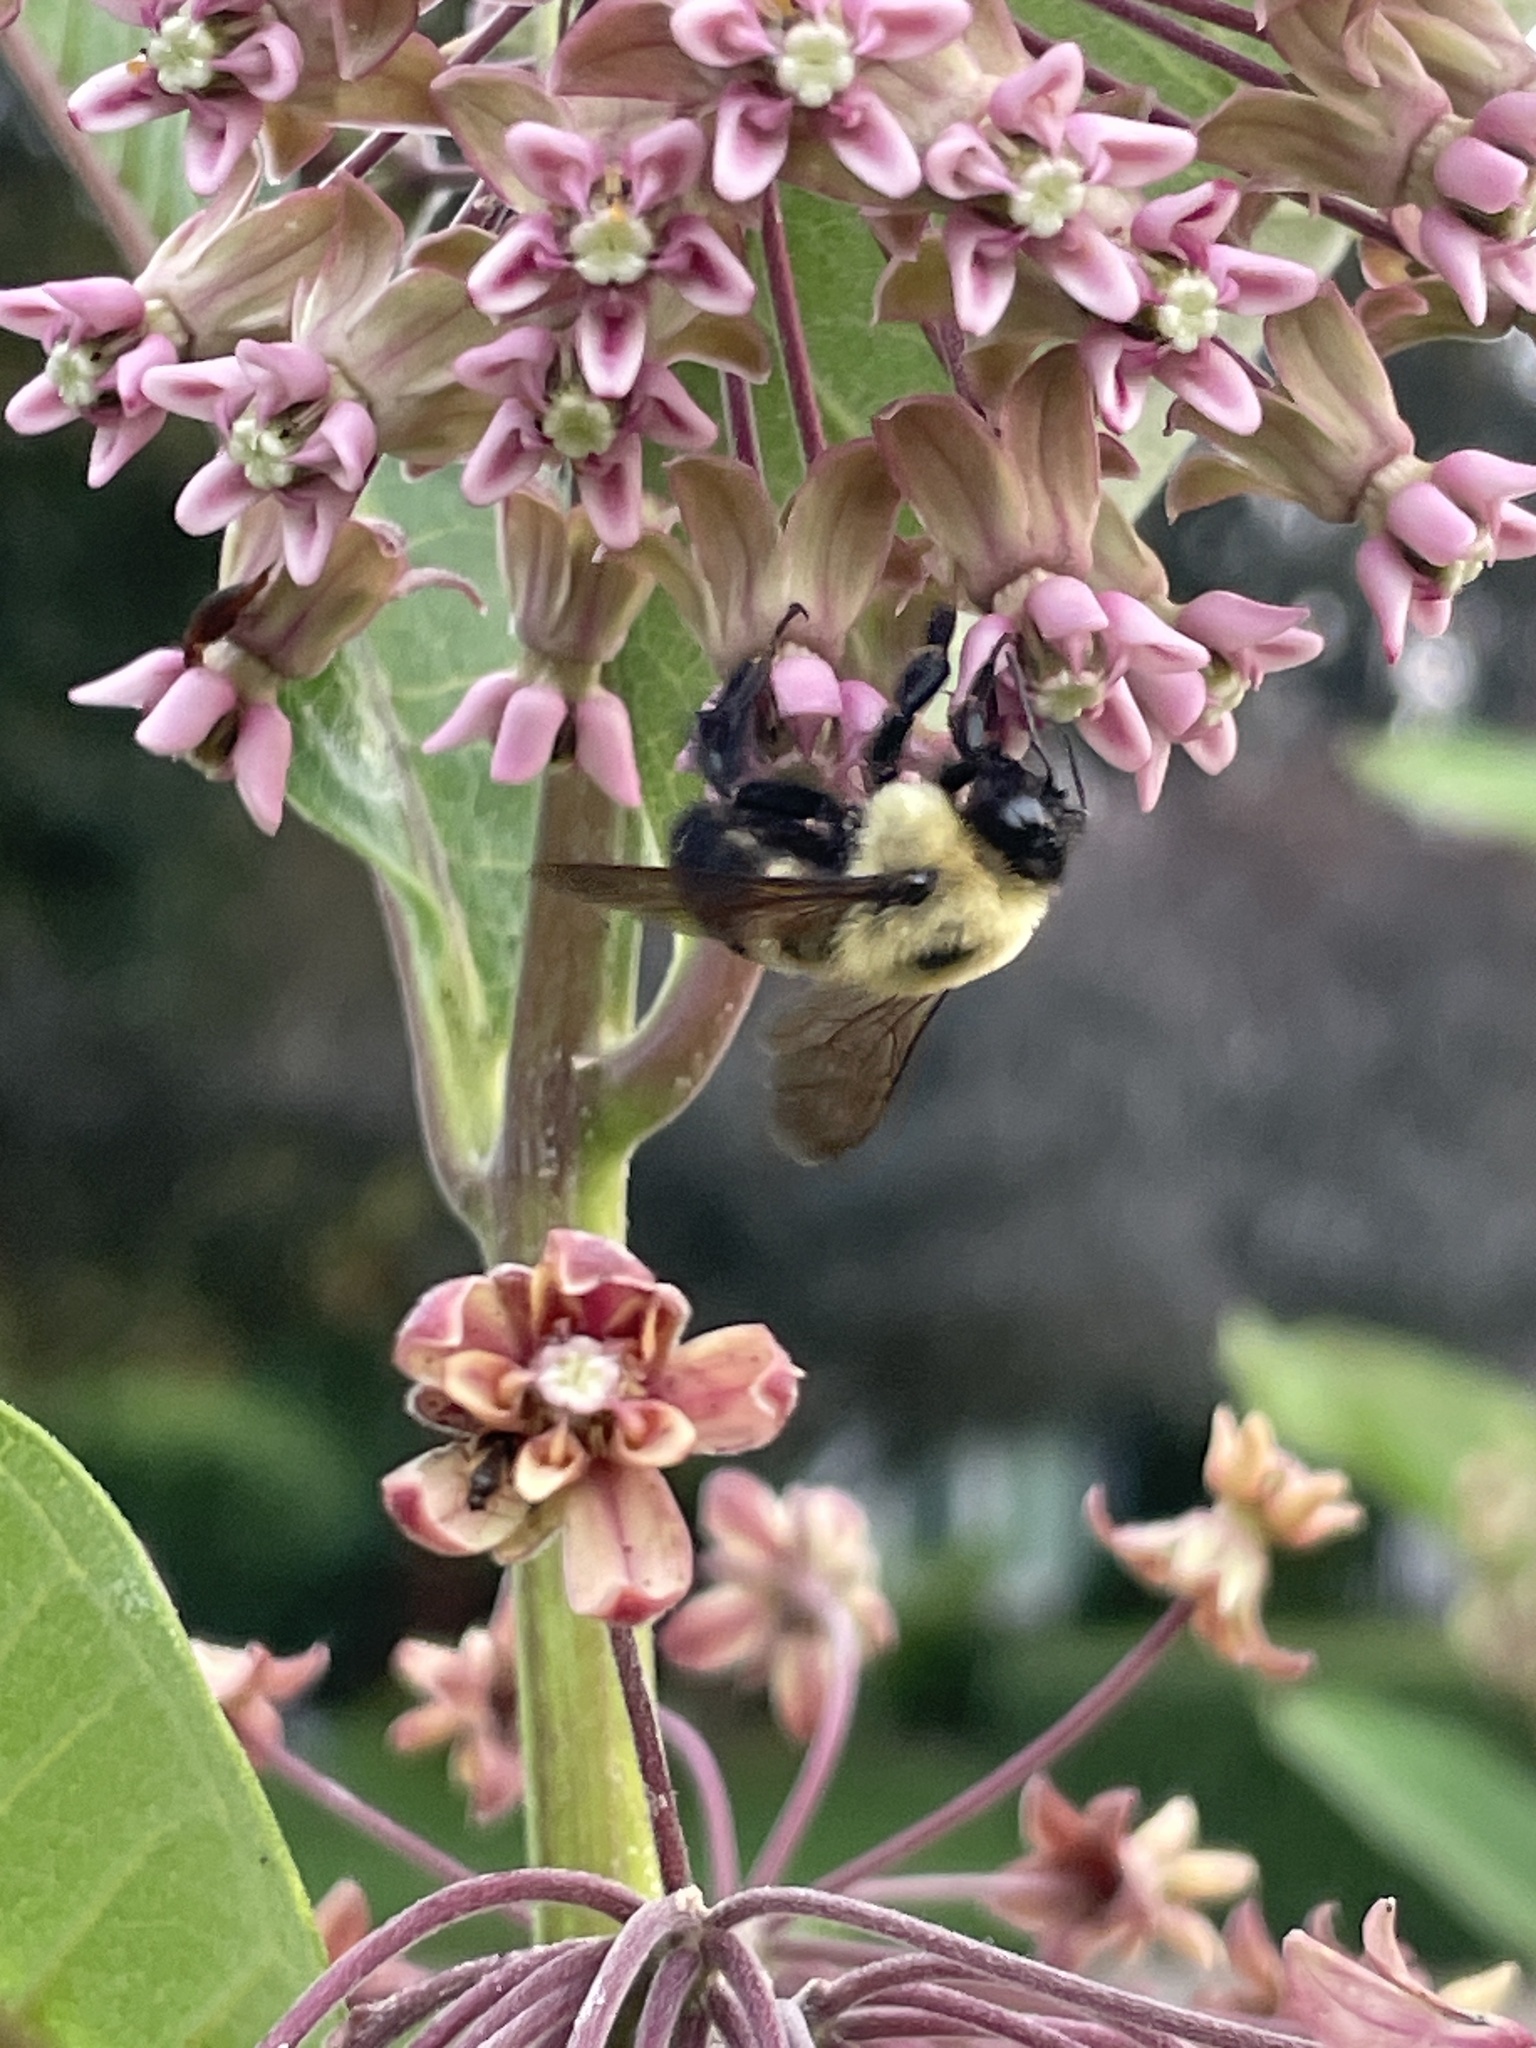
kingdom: Animalia
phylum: Arthropoda
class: Insecta
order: Hymenoptera
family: Apidae
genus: Bombus
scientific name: Bombus griseocollis
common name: Brown-belted bumble bee
